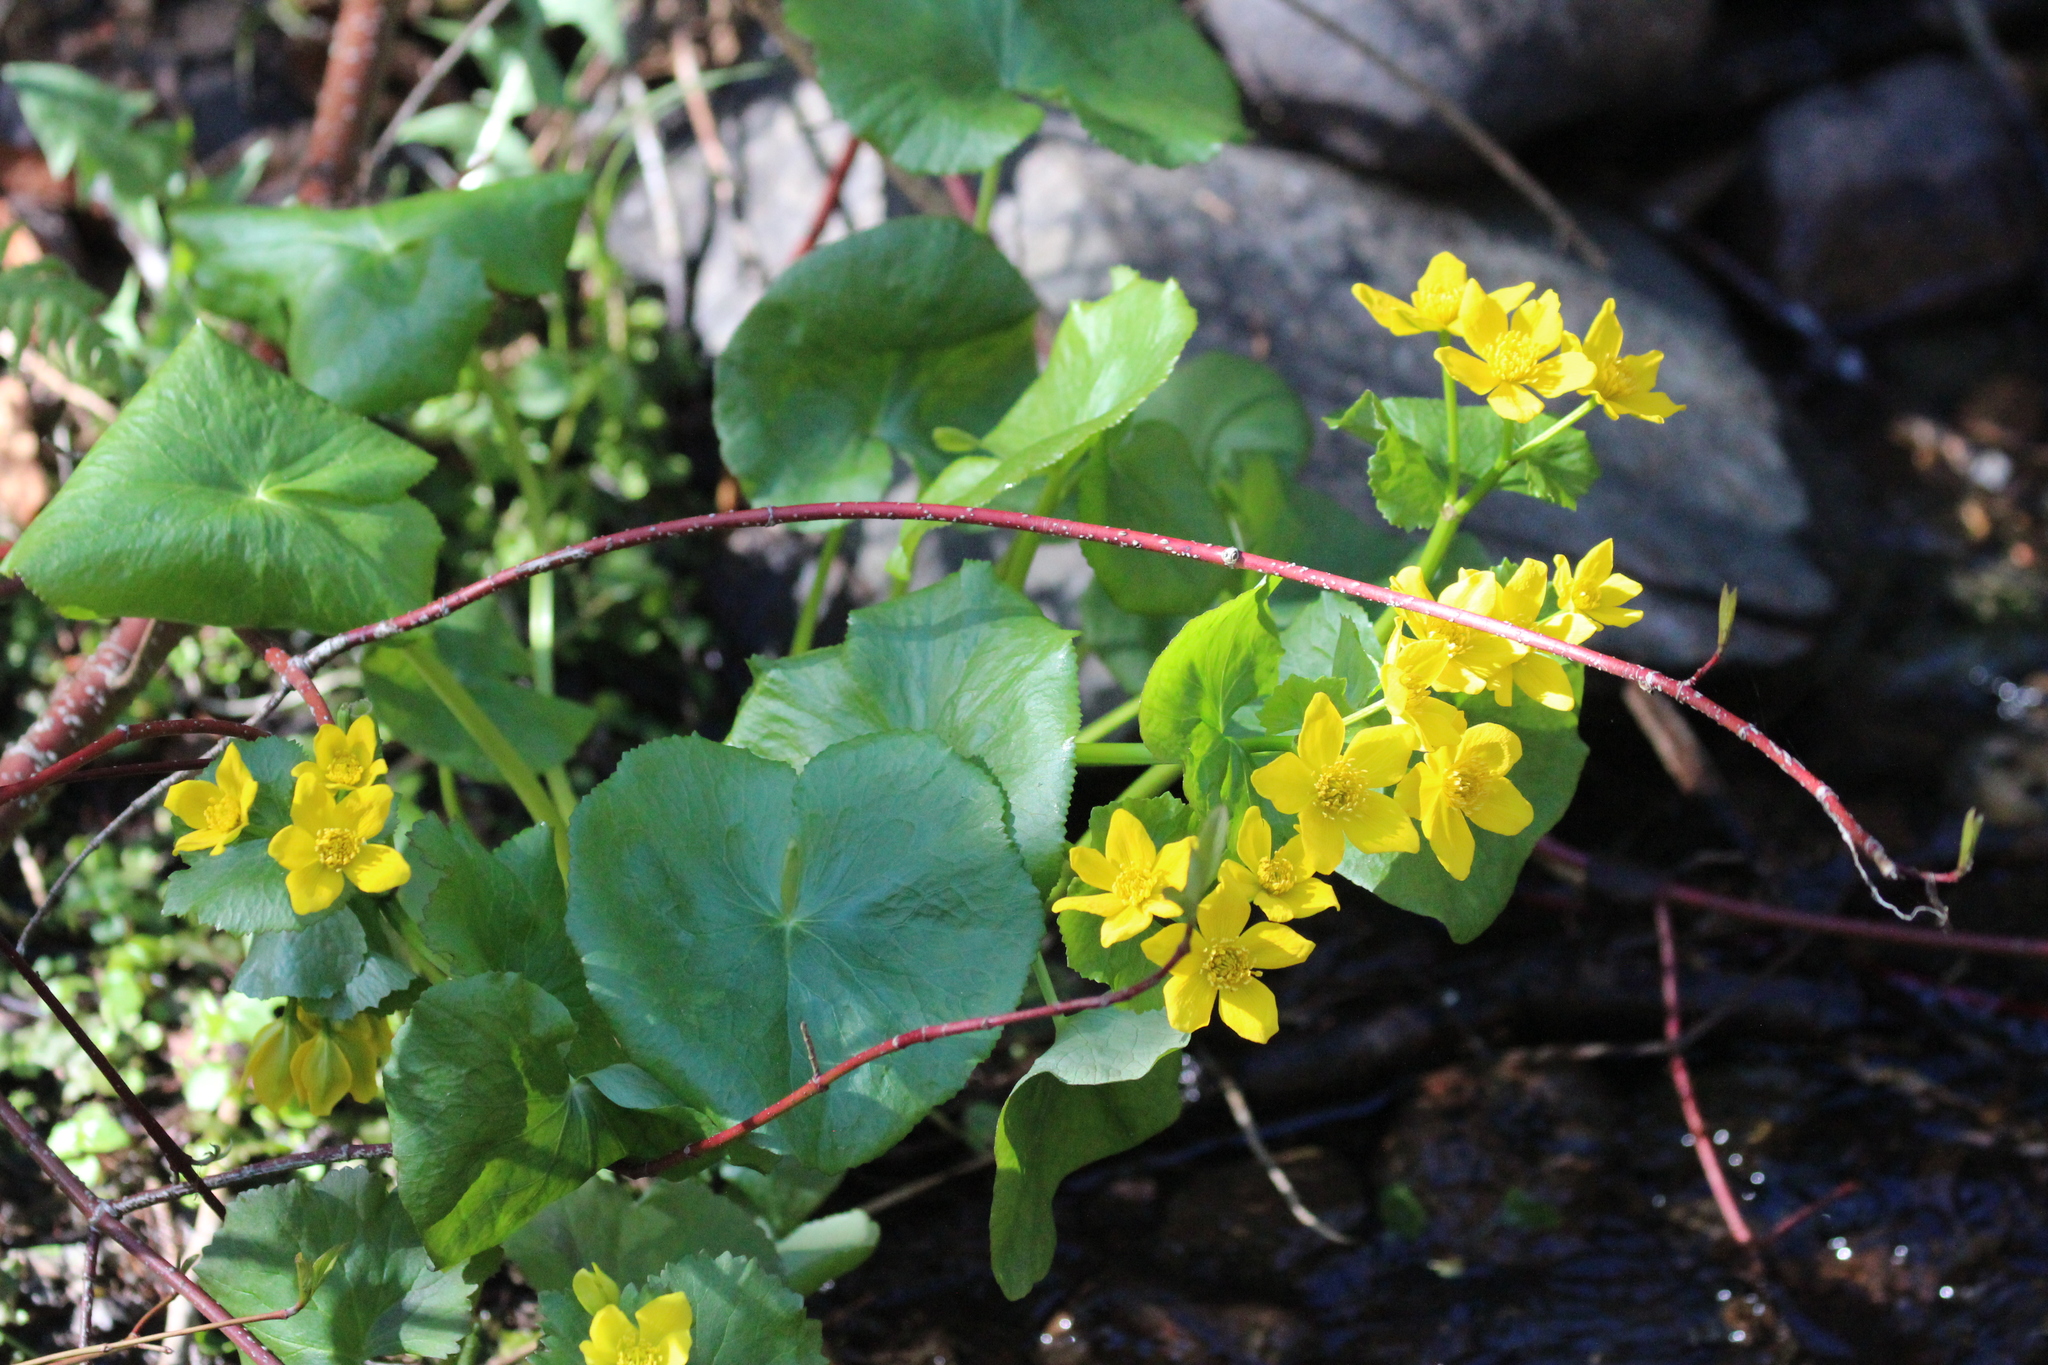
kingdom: Plantae
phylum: Tracheophyta
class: Magnoliopsida
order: Ranunculales
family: Ranunculaceae
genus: Caltha
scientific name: Caltha palustris
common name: Marsh marigold
